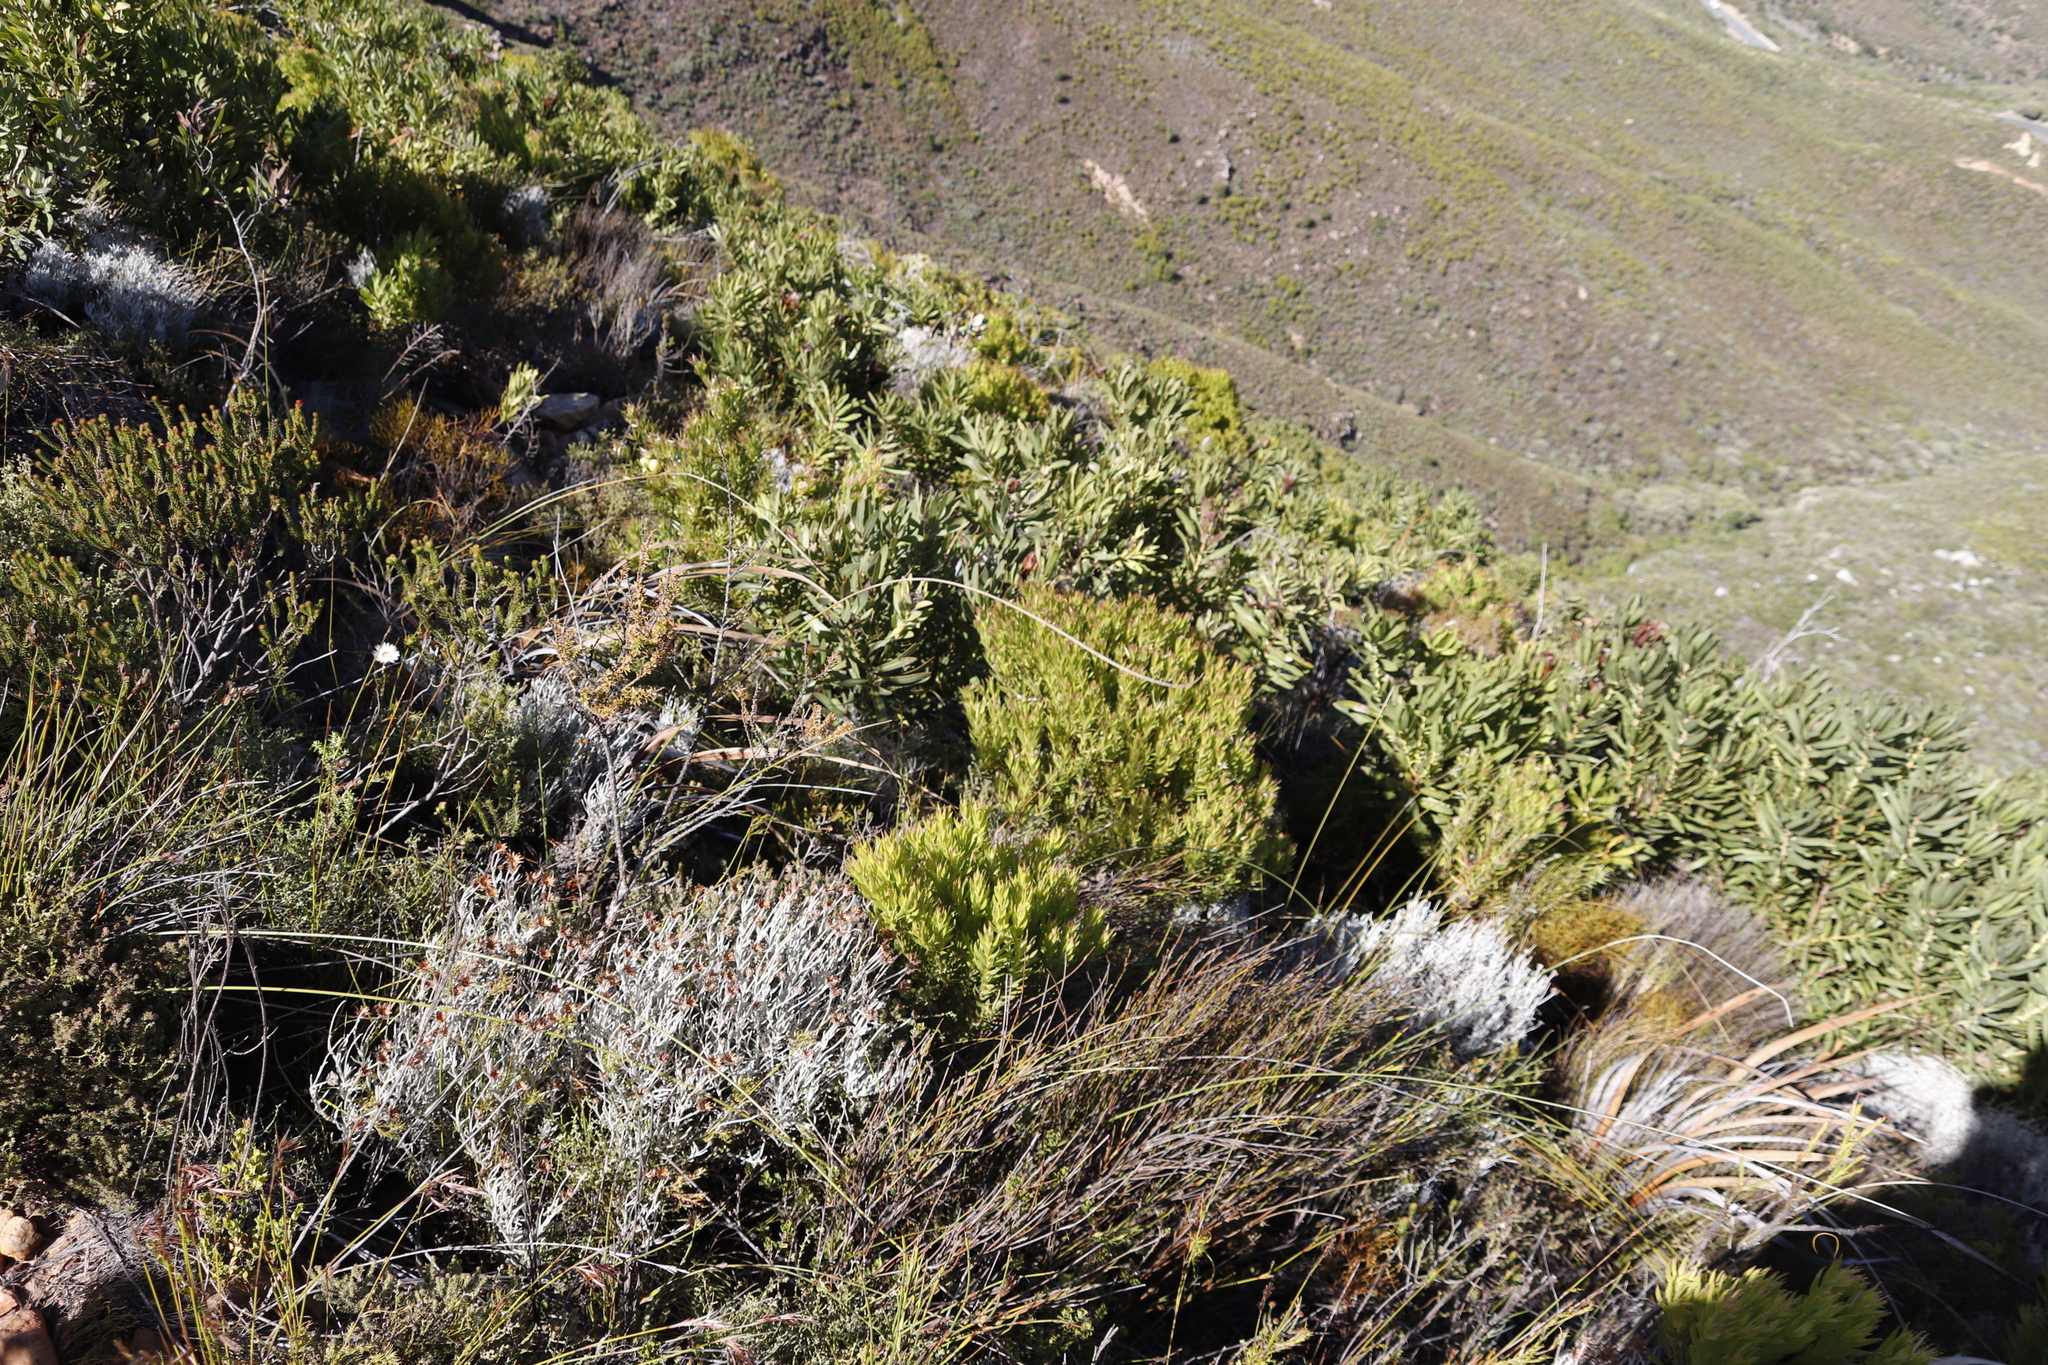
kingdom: Plantae
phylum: Tracheophyta
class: Magnoliopsida
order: Asterales
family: Asteraceae
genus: Syncarpha
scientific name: Syncarpha gnaphaloides
